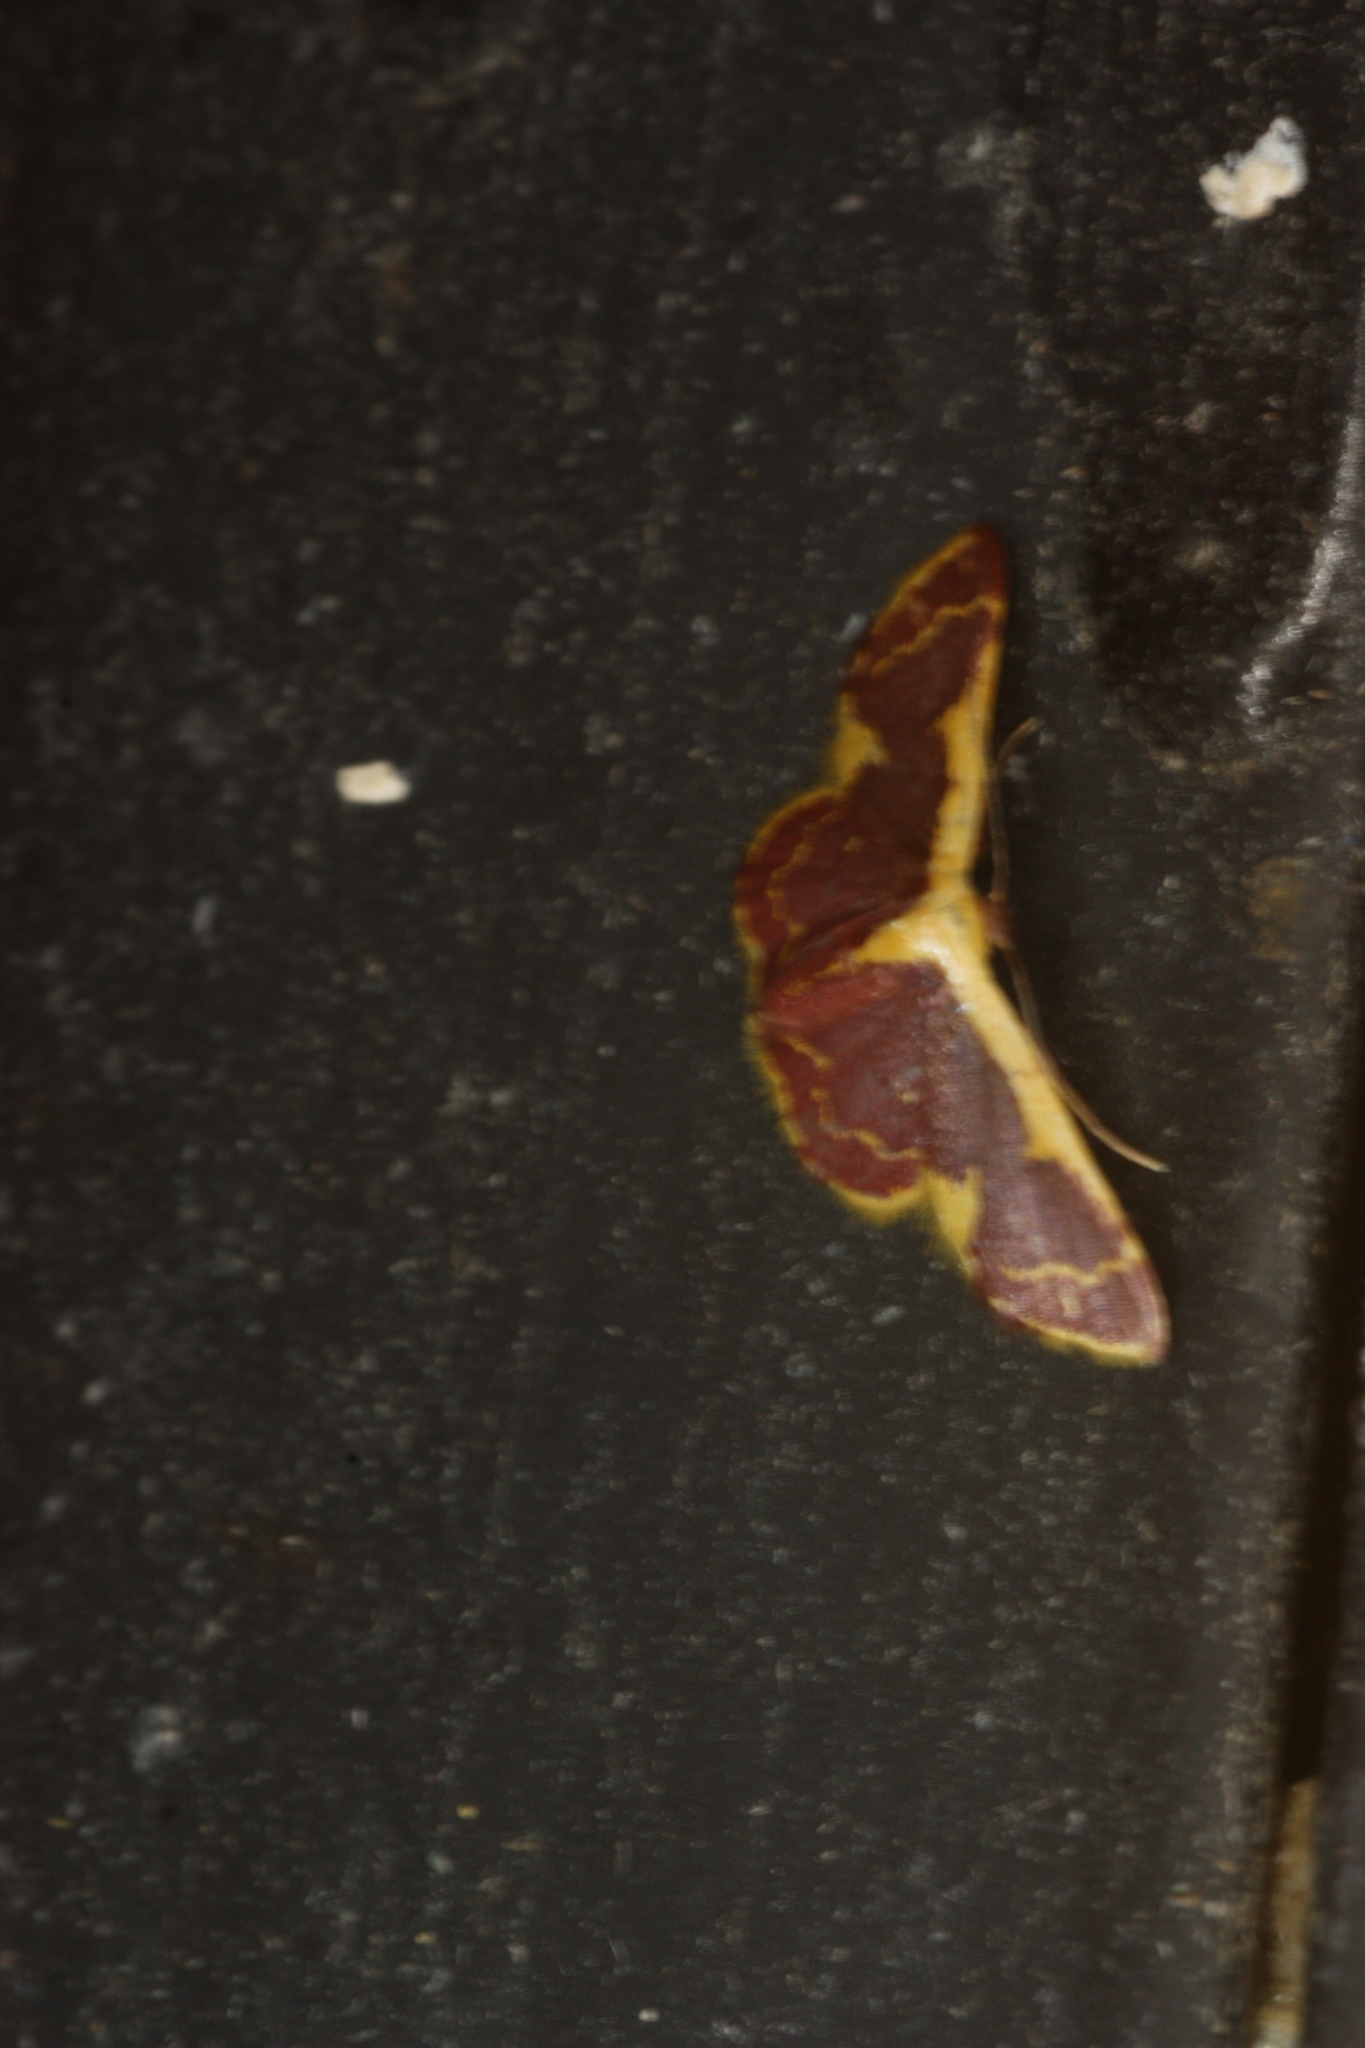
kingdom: Animalia
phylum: Arthropoda
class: Insecta
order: Lepidoptera
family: Geometridae
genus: Idaea
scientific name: Idaea gemma
